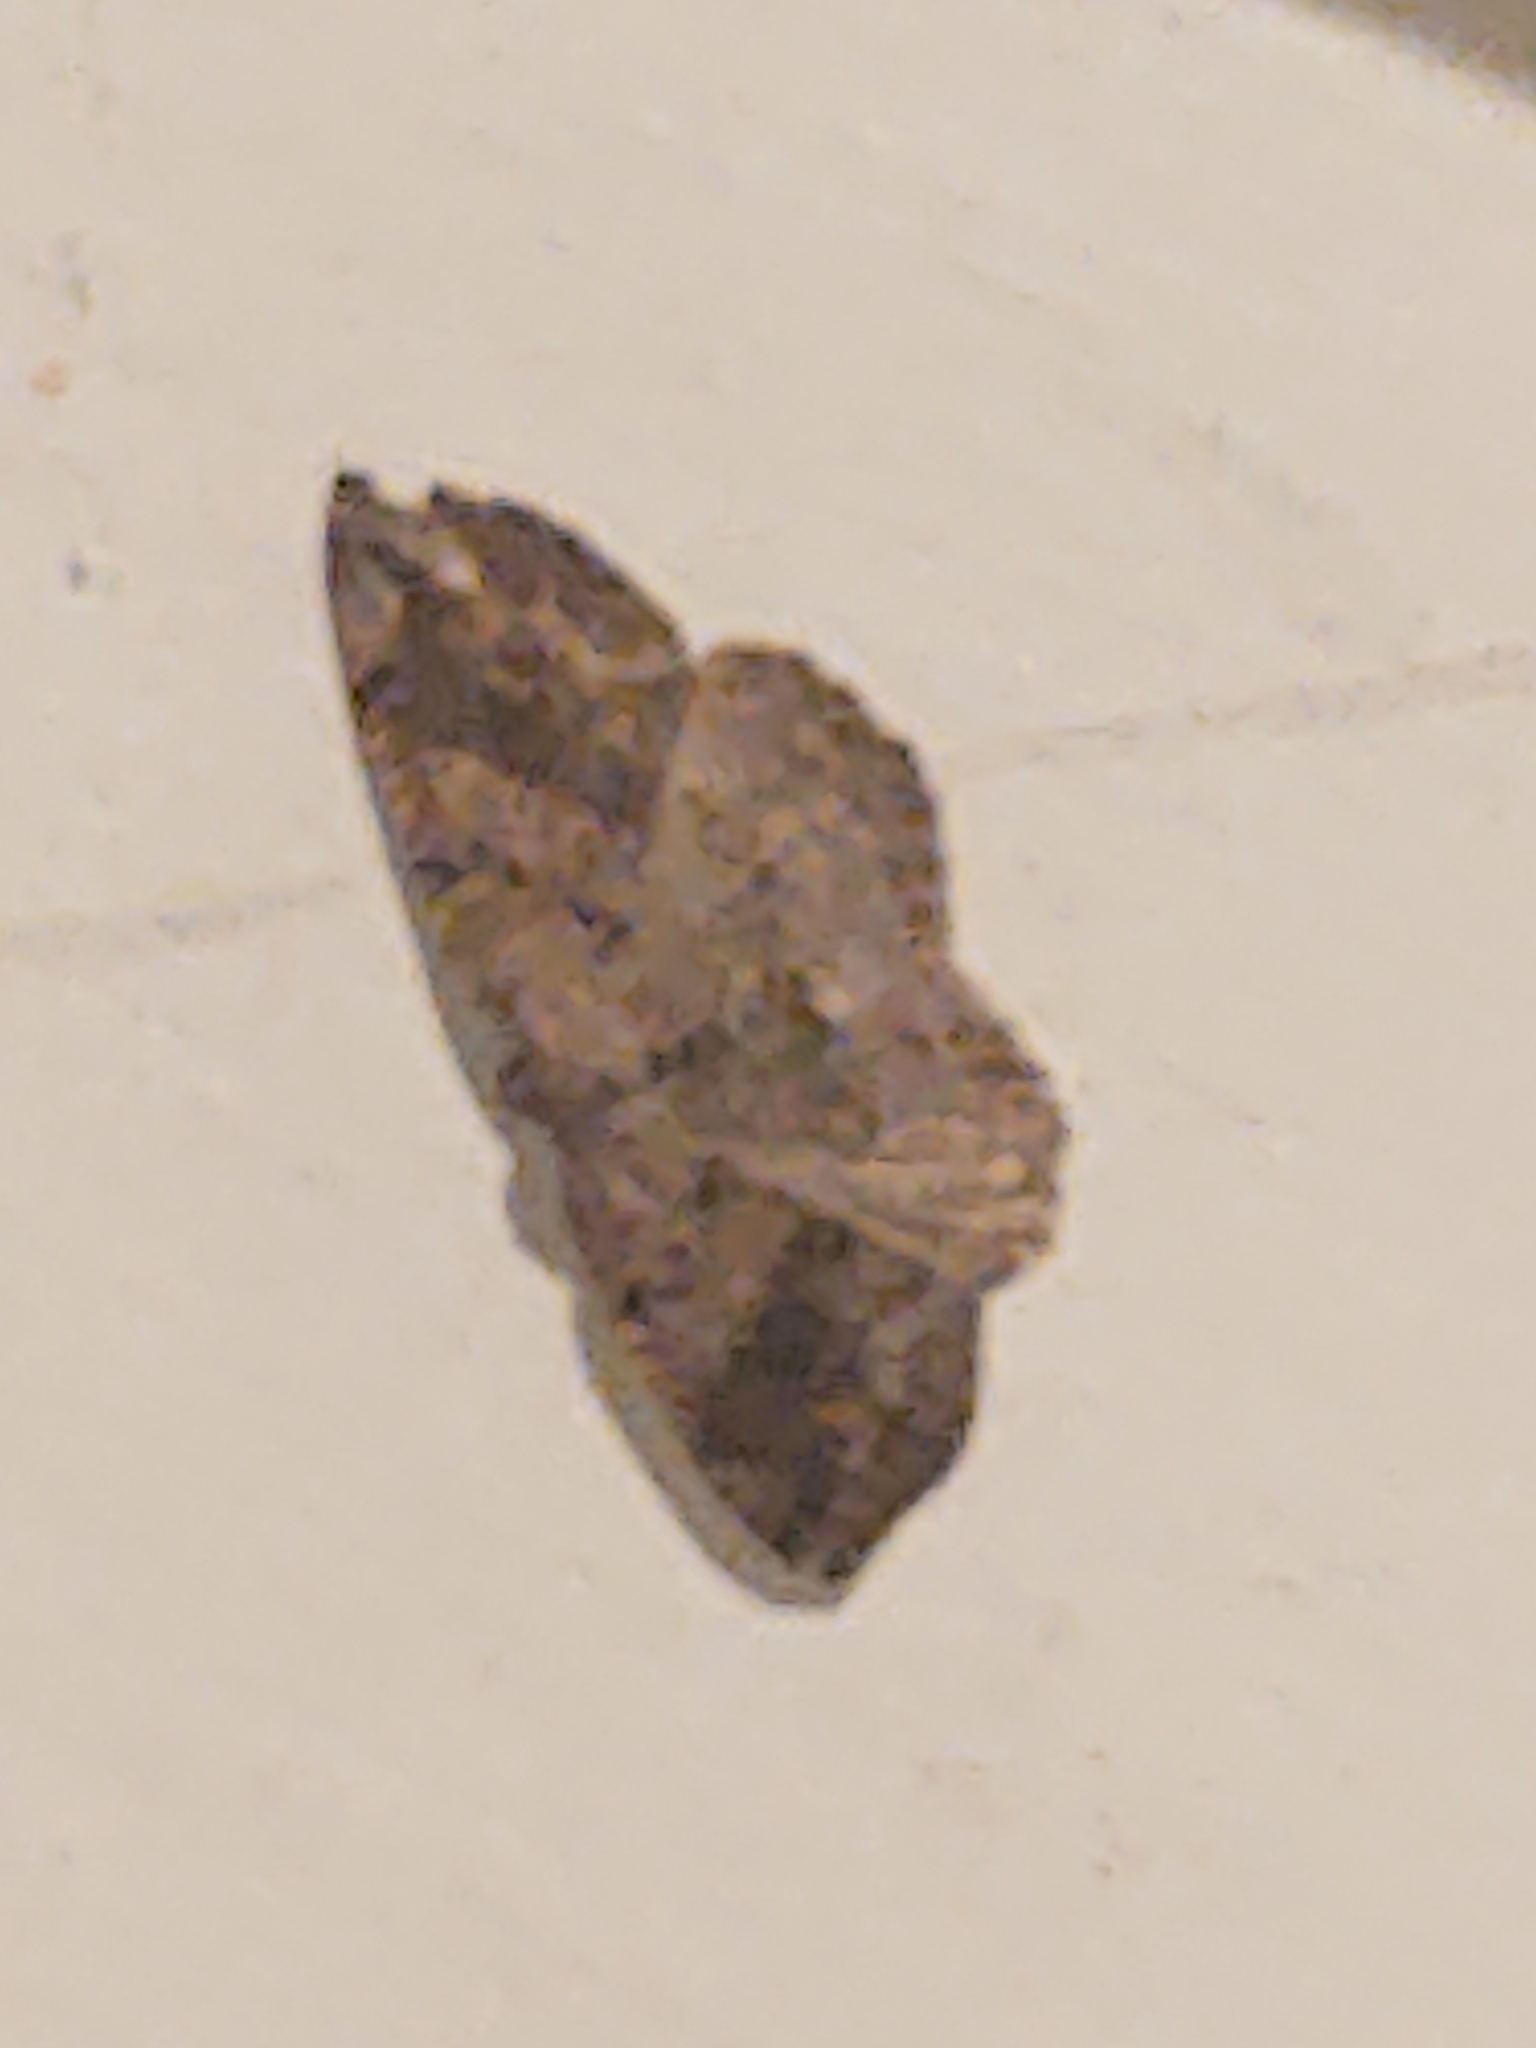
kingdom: Animalia
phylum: Arthropoda
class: Insecta
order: Lepidoptera
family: Geometridae
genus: Homochlodes
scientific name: Homochlodes fritillaria
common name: Pale homochlodes
